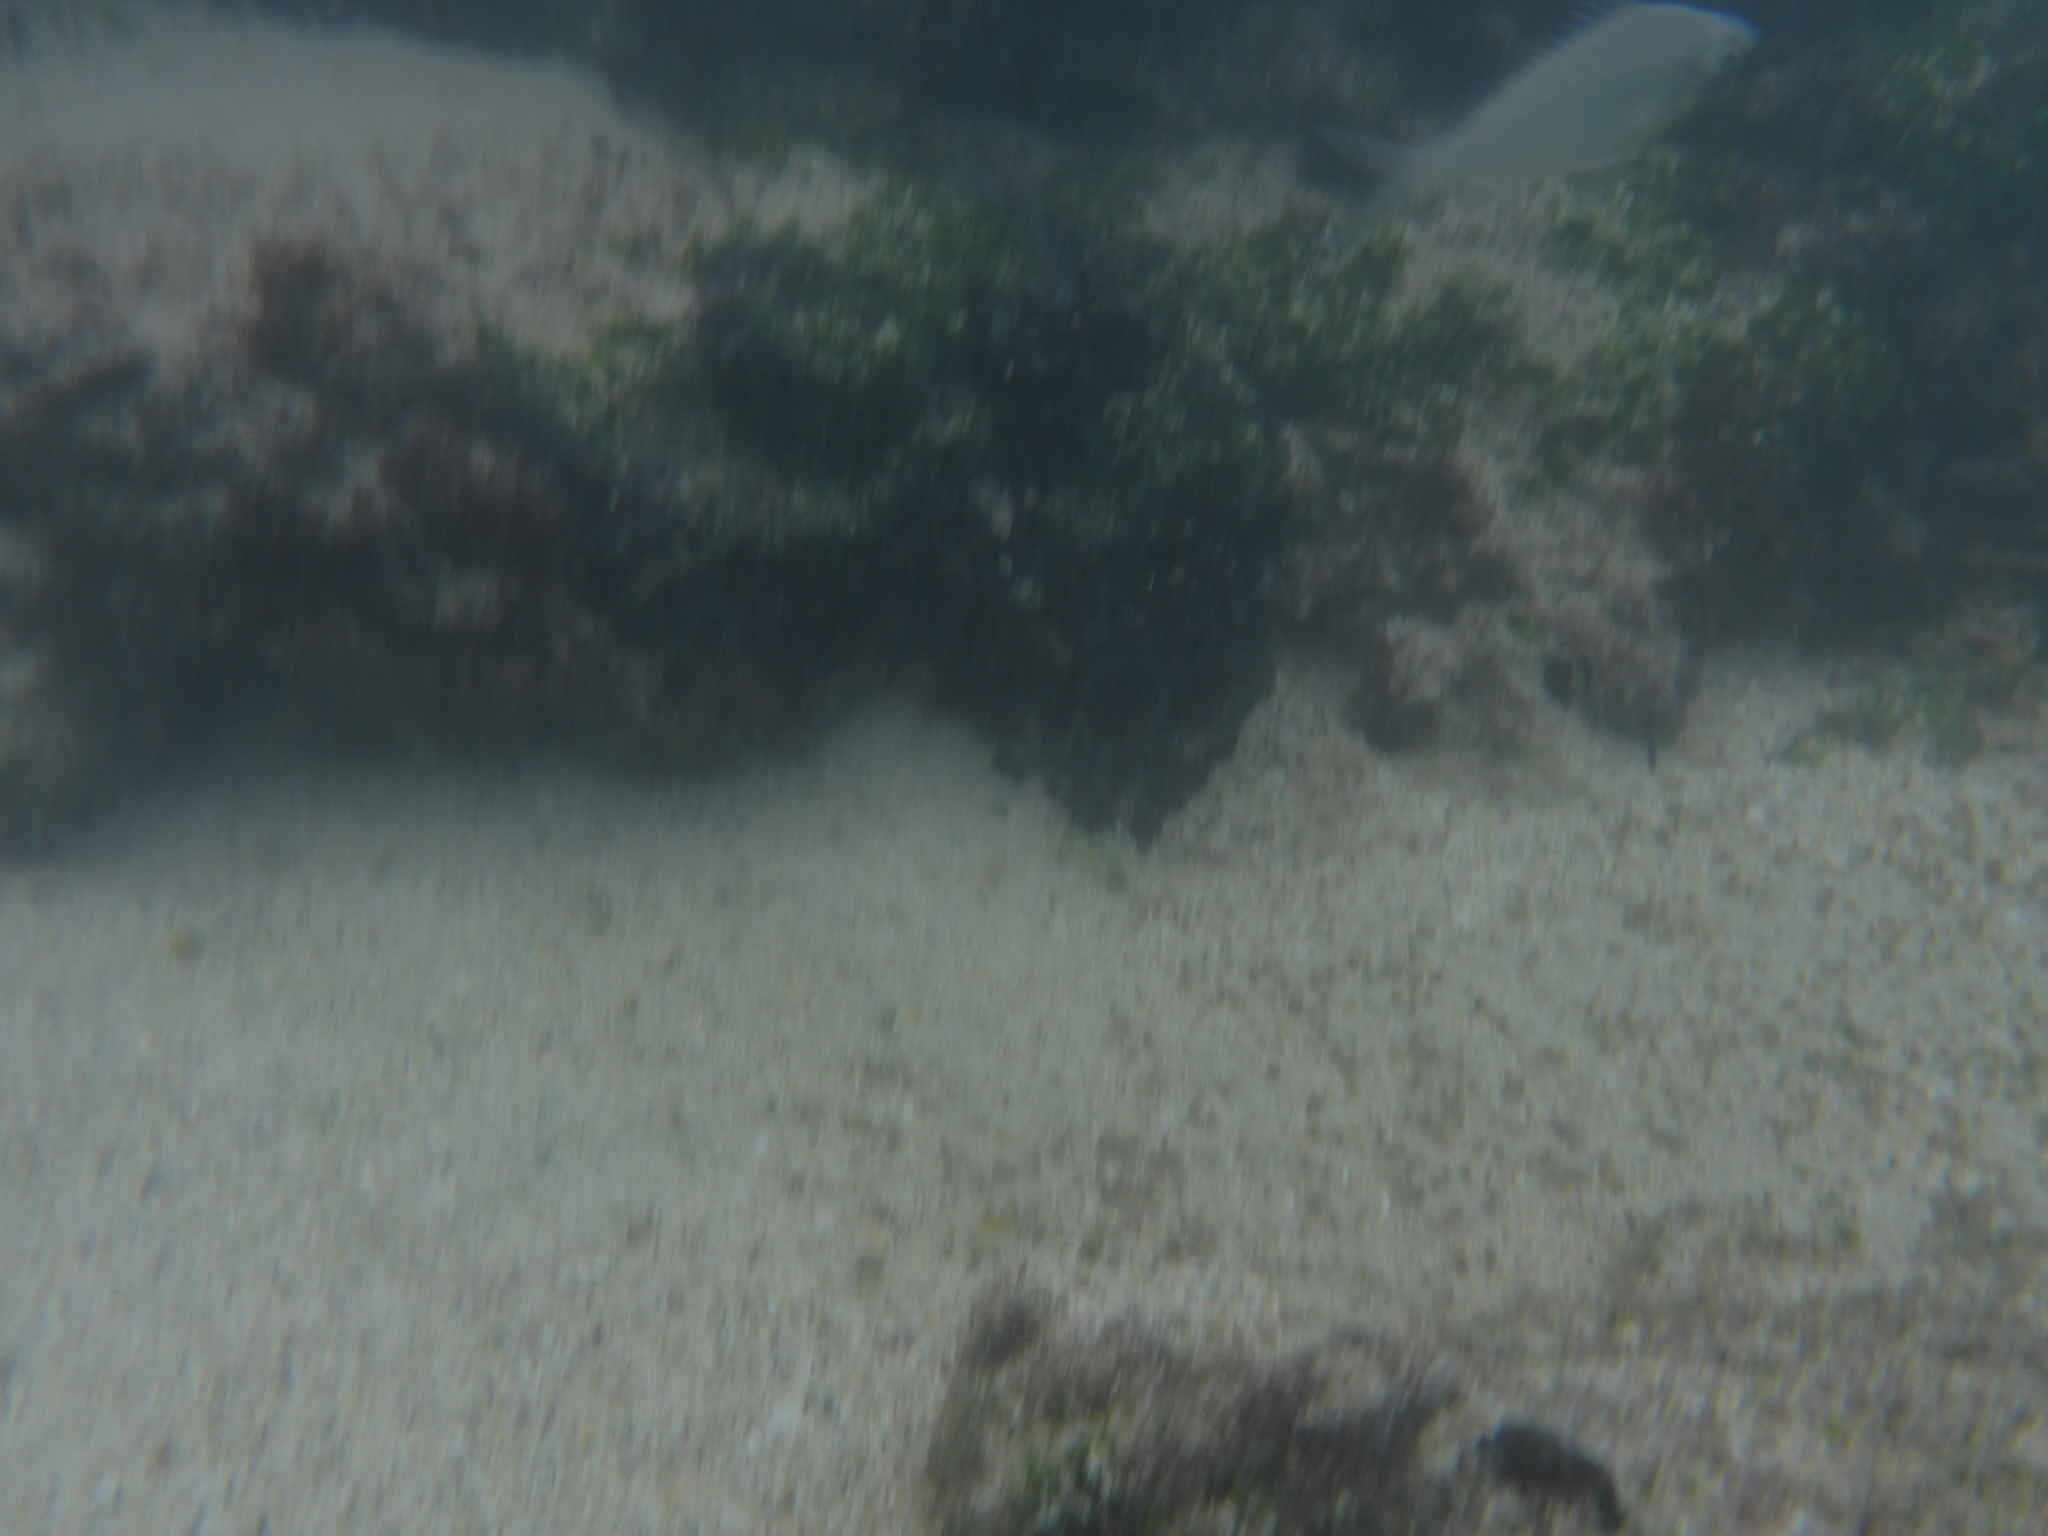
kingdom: Animalia
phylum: Chordata
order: Perciformes
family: Gerreidae
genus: Eucinostomus
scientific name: Eucinostomus dowii
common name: Dow's mojarra
